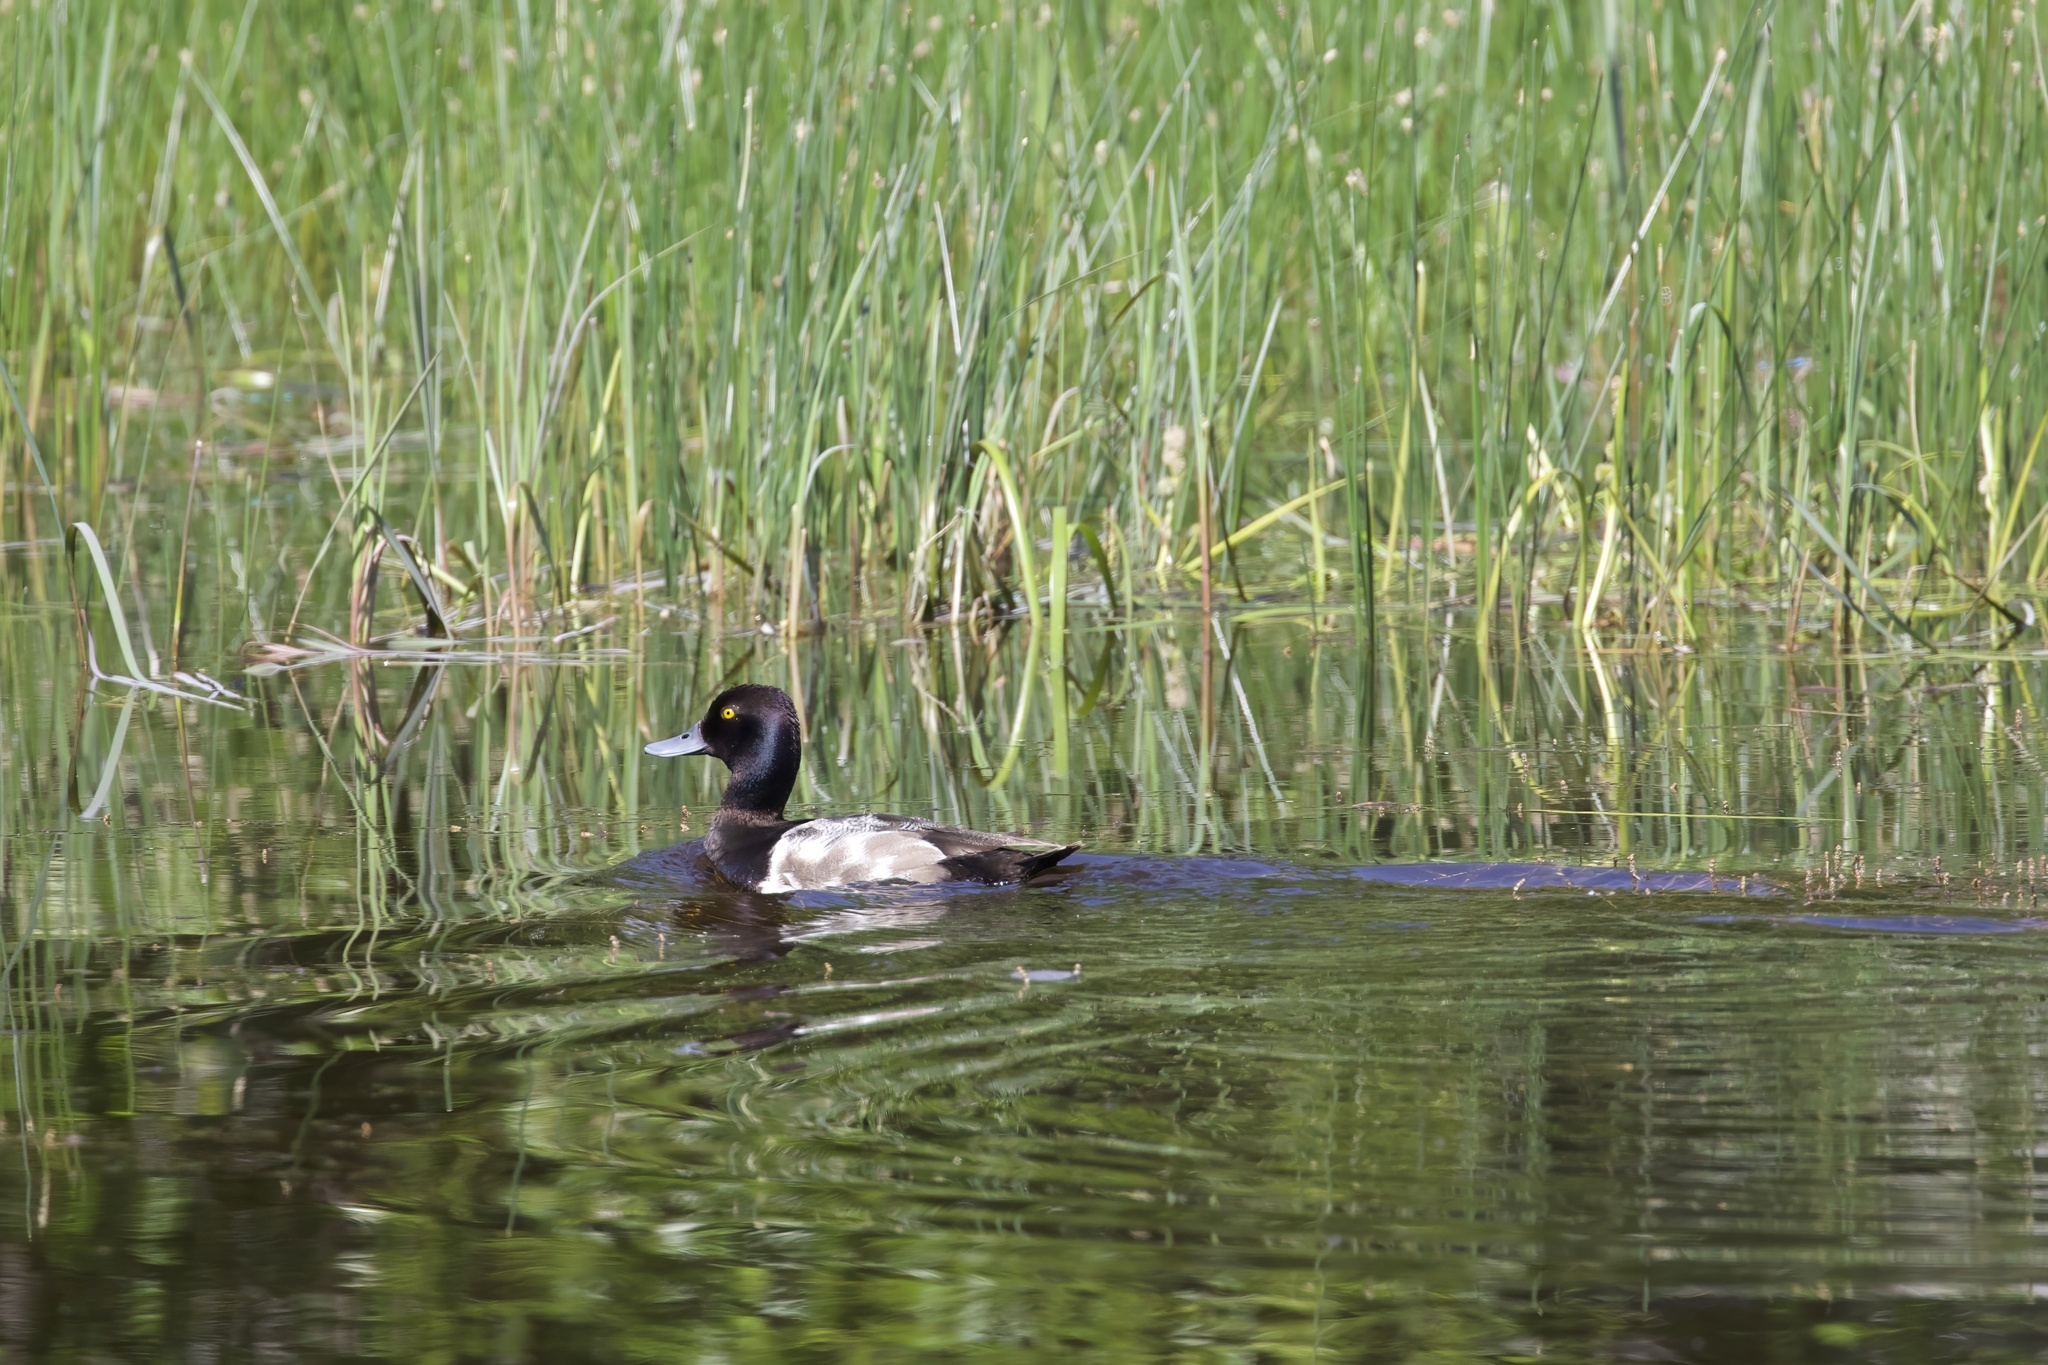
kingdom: Animalia
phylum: Chordata
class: Aves
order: Anseriformes
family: Anatidae
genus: Aythya
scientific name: Aythya affinis
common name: Lesser scaup
